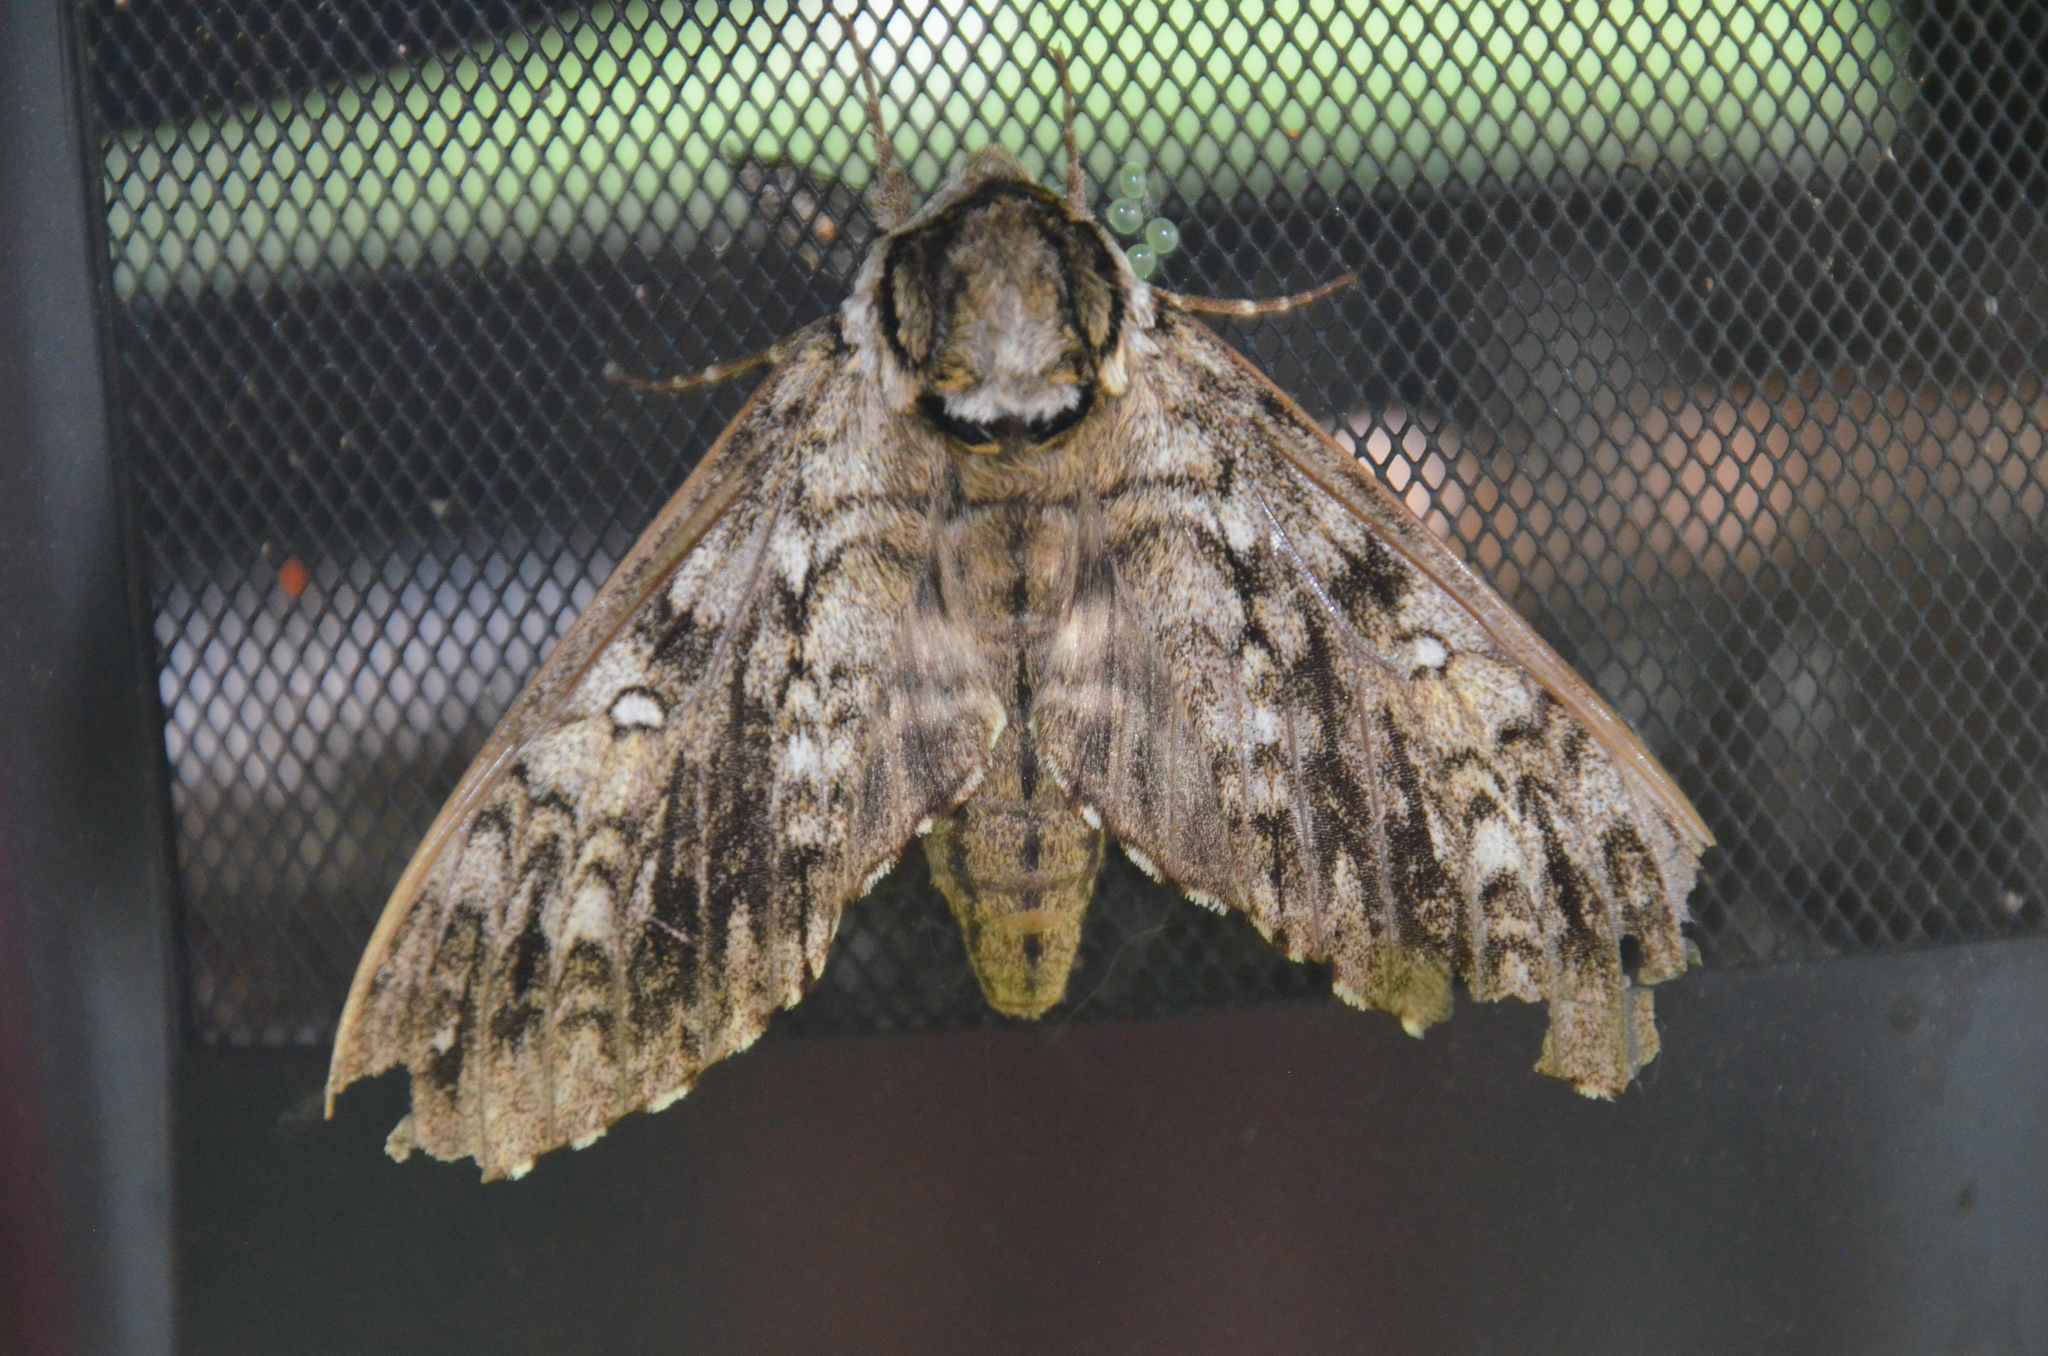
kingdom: Animalia
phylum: Arthropoda
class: Insecta
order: Lepidoptera
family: Sphingidae
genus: Ceratomia
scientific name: Ceratomia undulosa
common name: Waved sphinx
